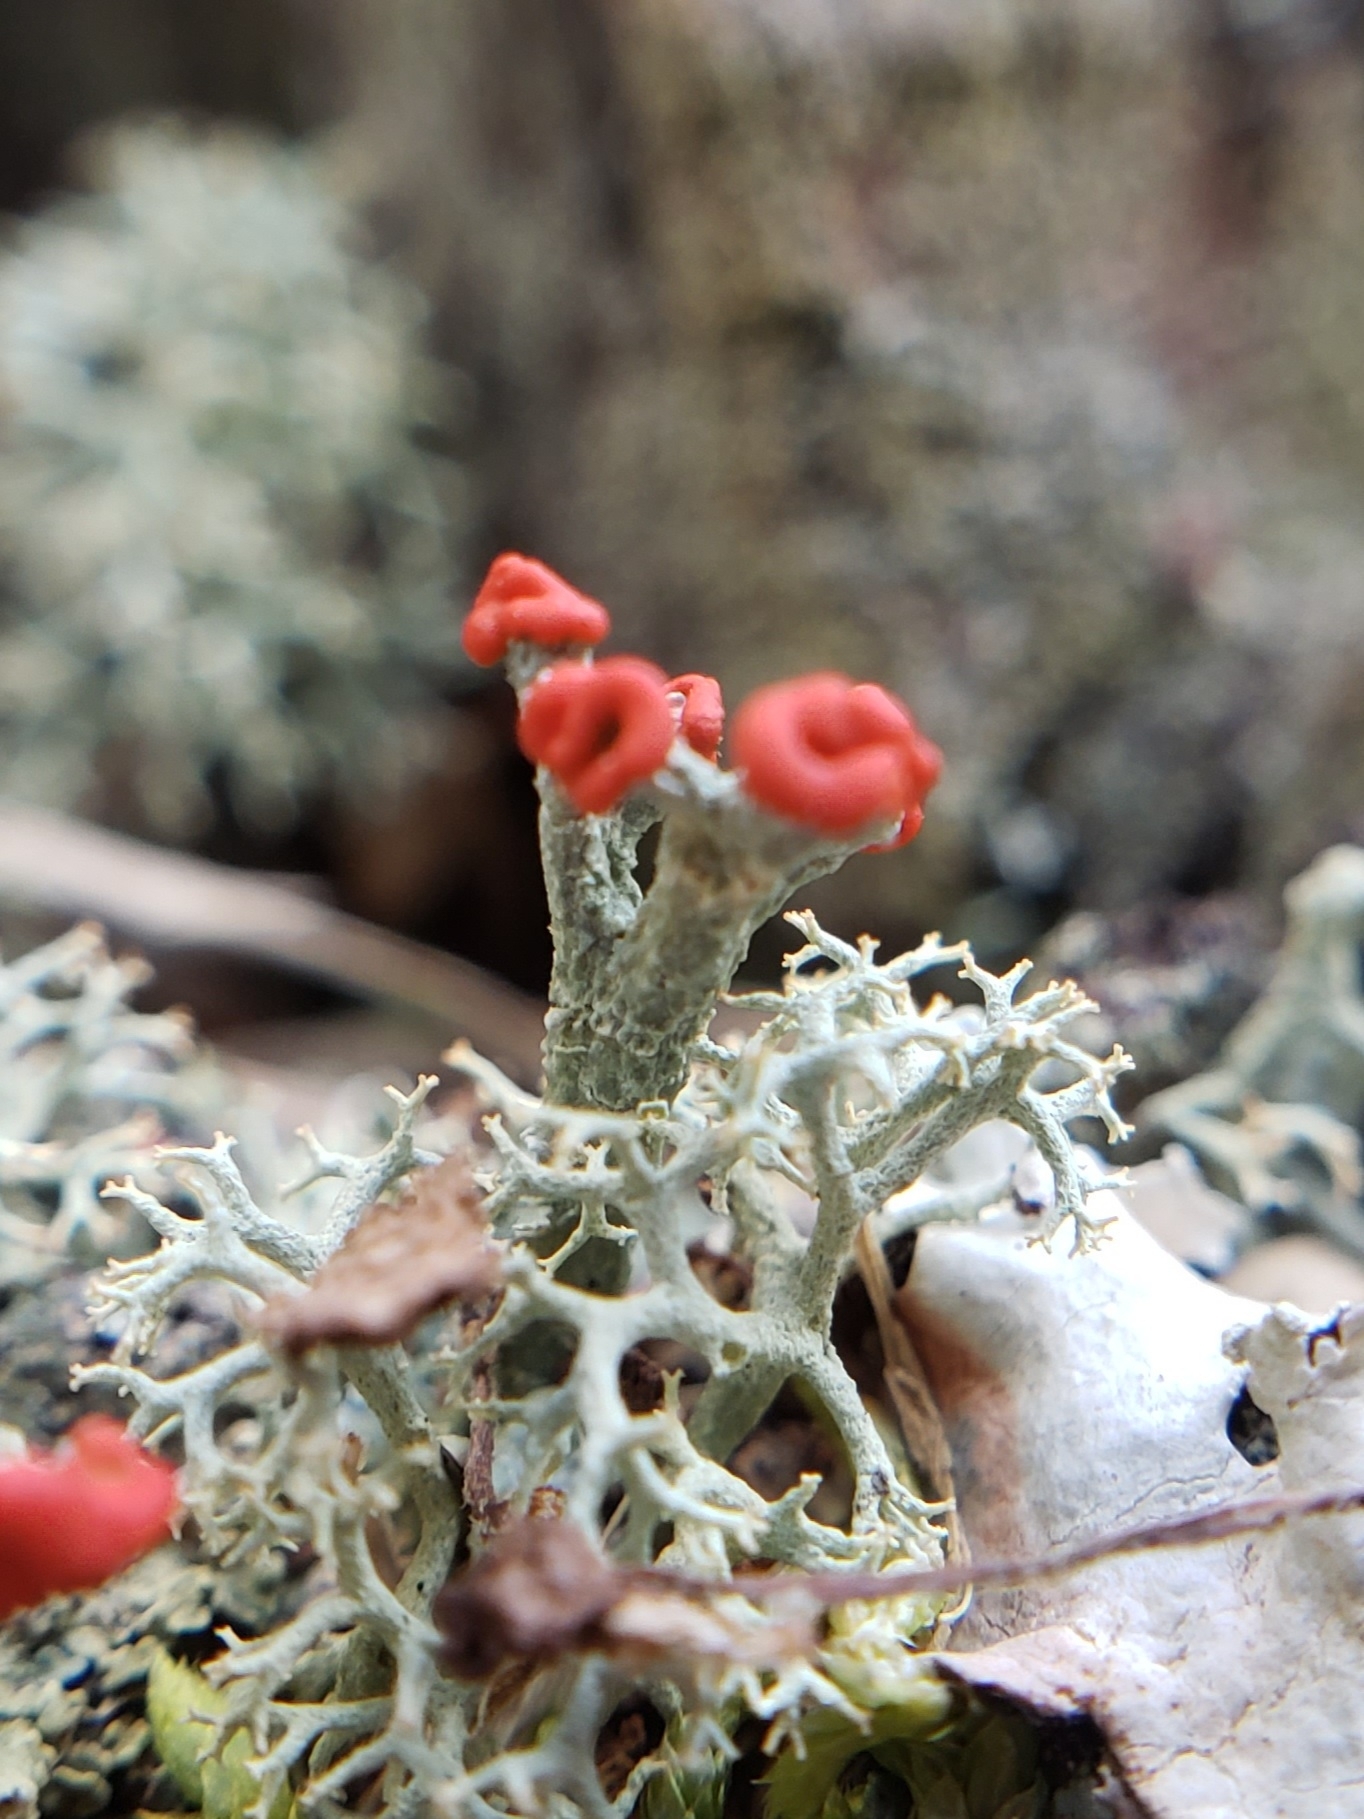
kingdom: Fungi
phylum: Ascomycota
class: Lecanoromycetes
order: Lecanorales
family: Cladoniaceae
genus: Cladonia
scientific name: Cladonia cristatella
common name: British soldier lichen
